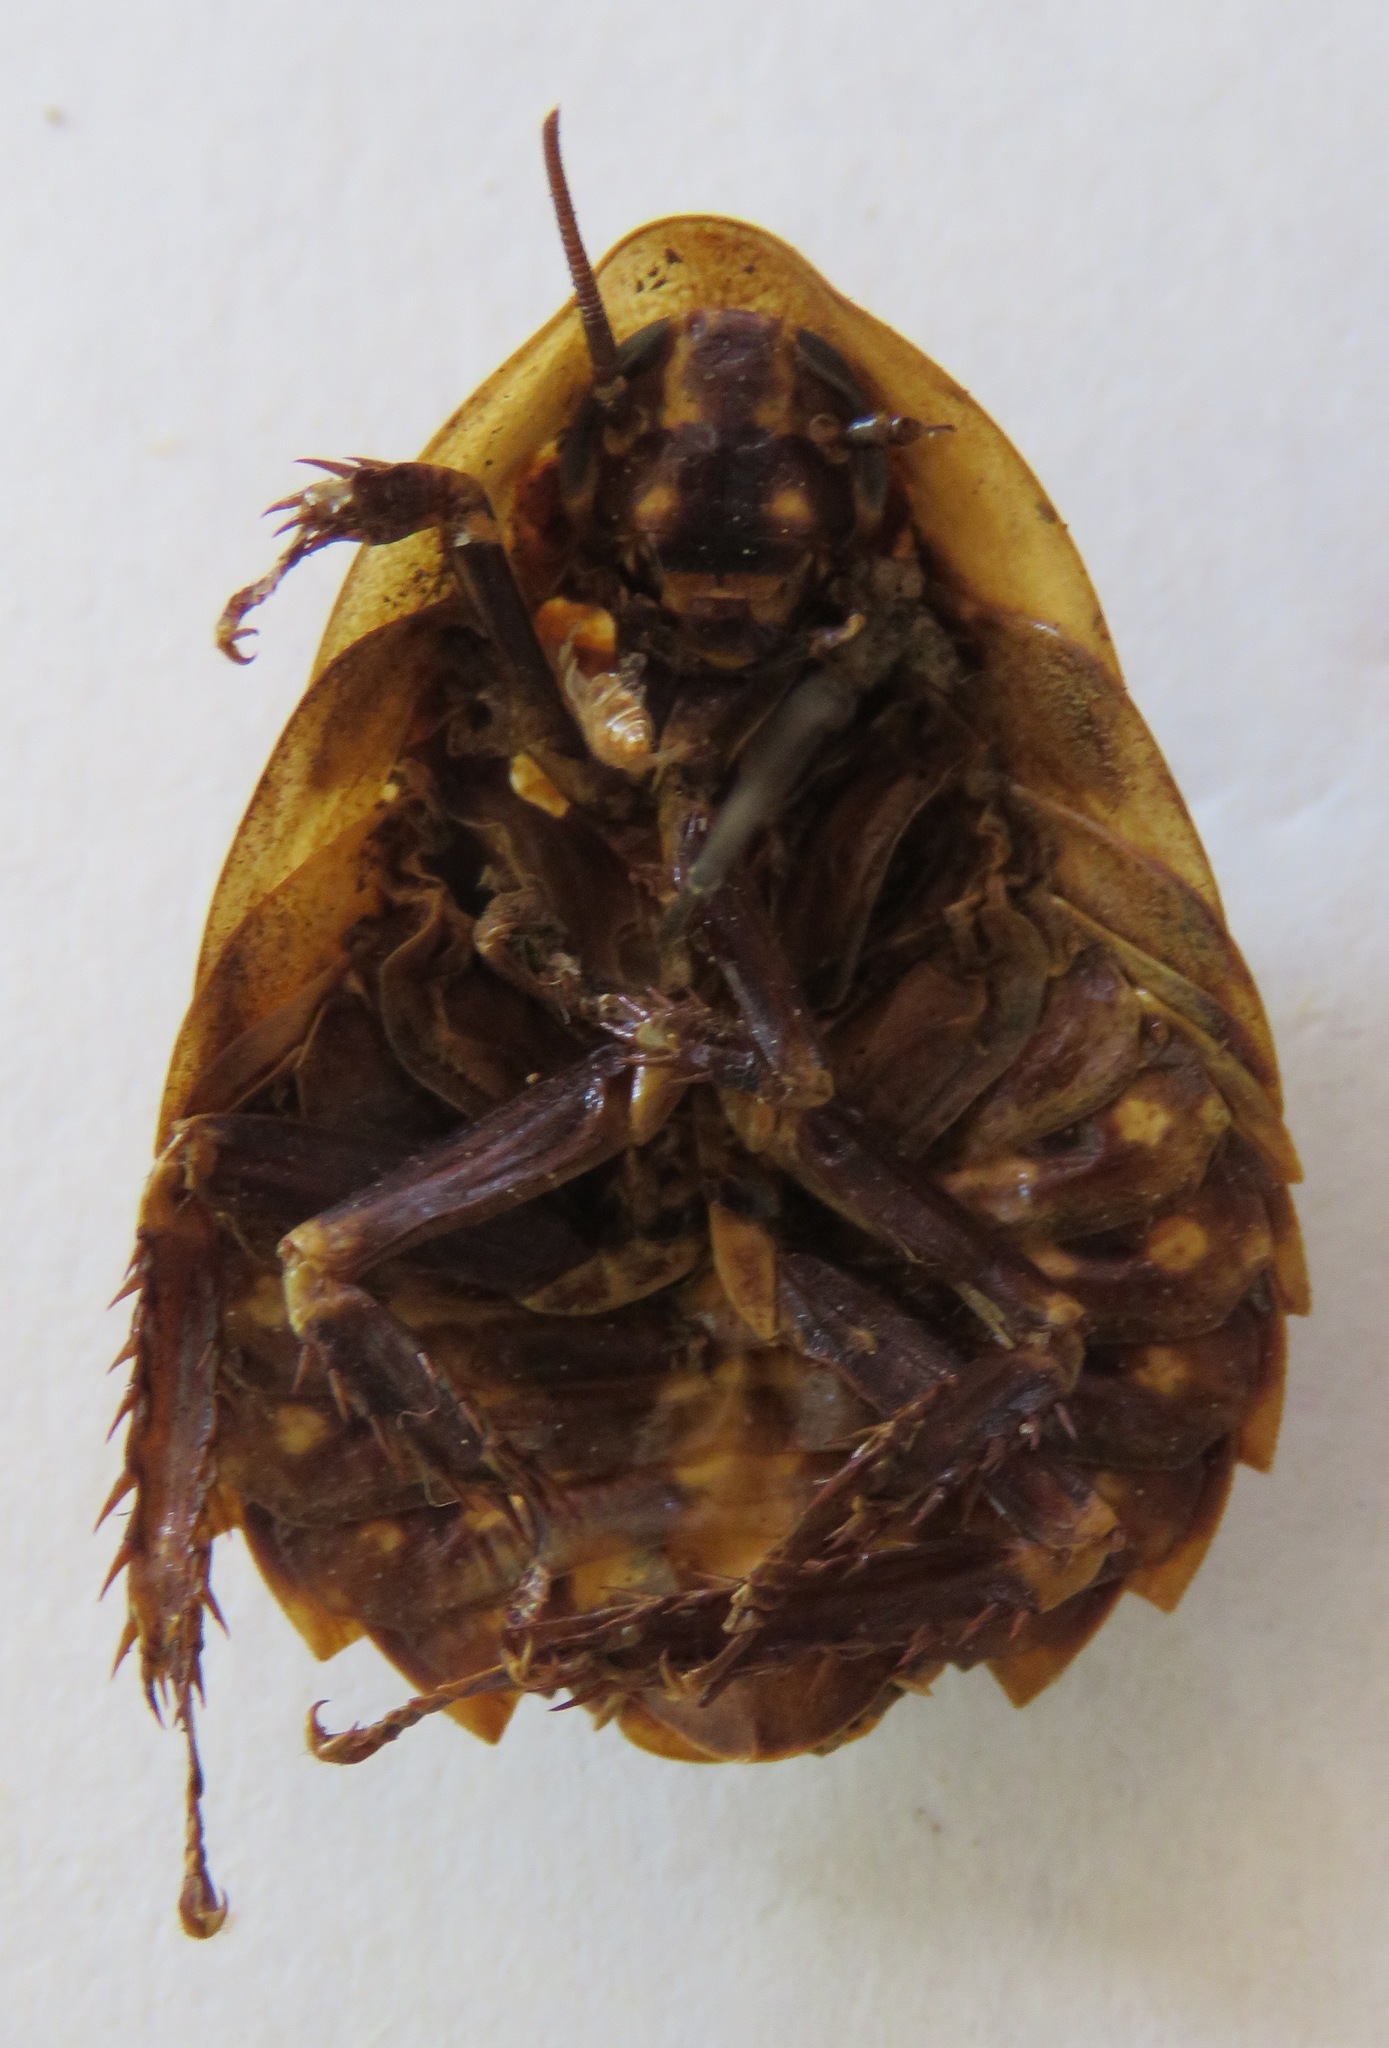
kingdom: Animalia
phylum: Arthropoda
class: Insecta
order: Blattodea
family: Blaberidae
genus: Blaberus
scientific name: Blaberus discoidalis
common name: Discoid cockroach
